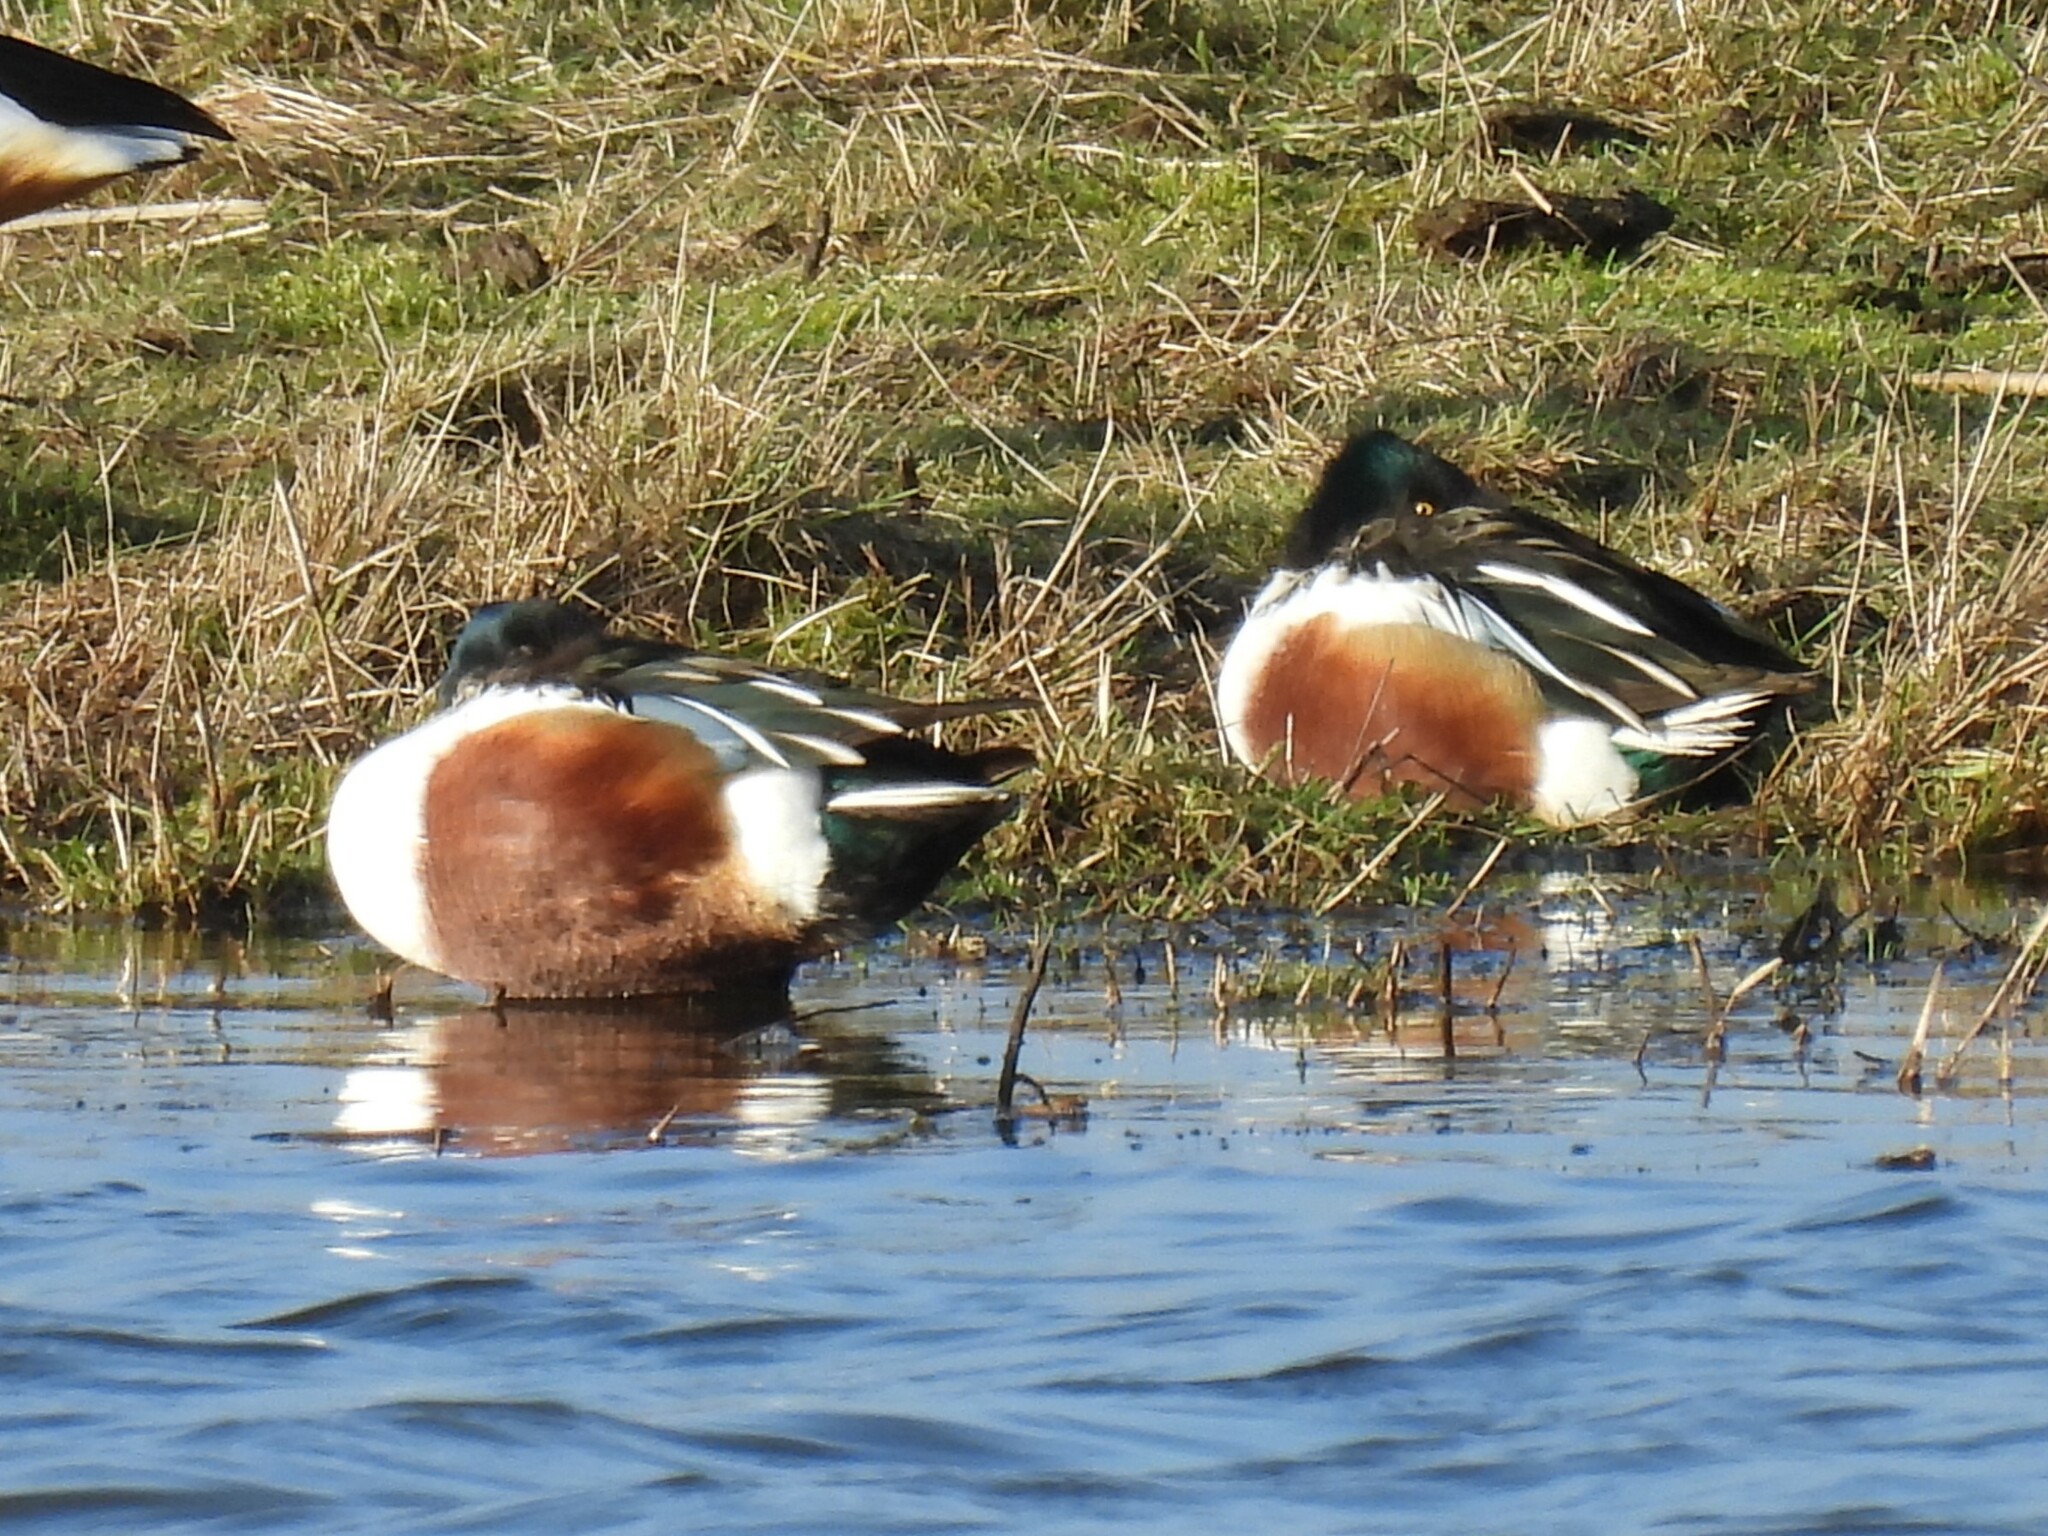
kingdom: Animalia
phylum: Chordata
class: Aves
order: Anseriformes
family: Anatidae
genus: Spatula
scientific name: Spatula clypeata
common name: Northern shoveler
